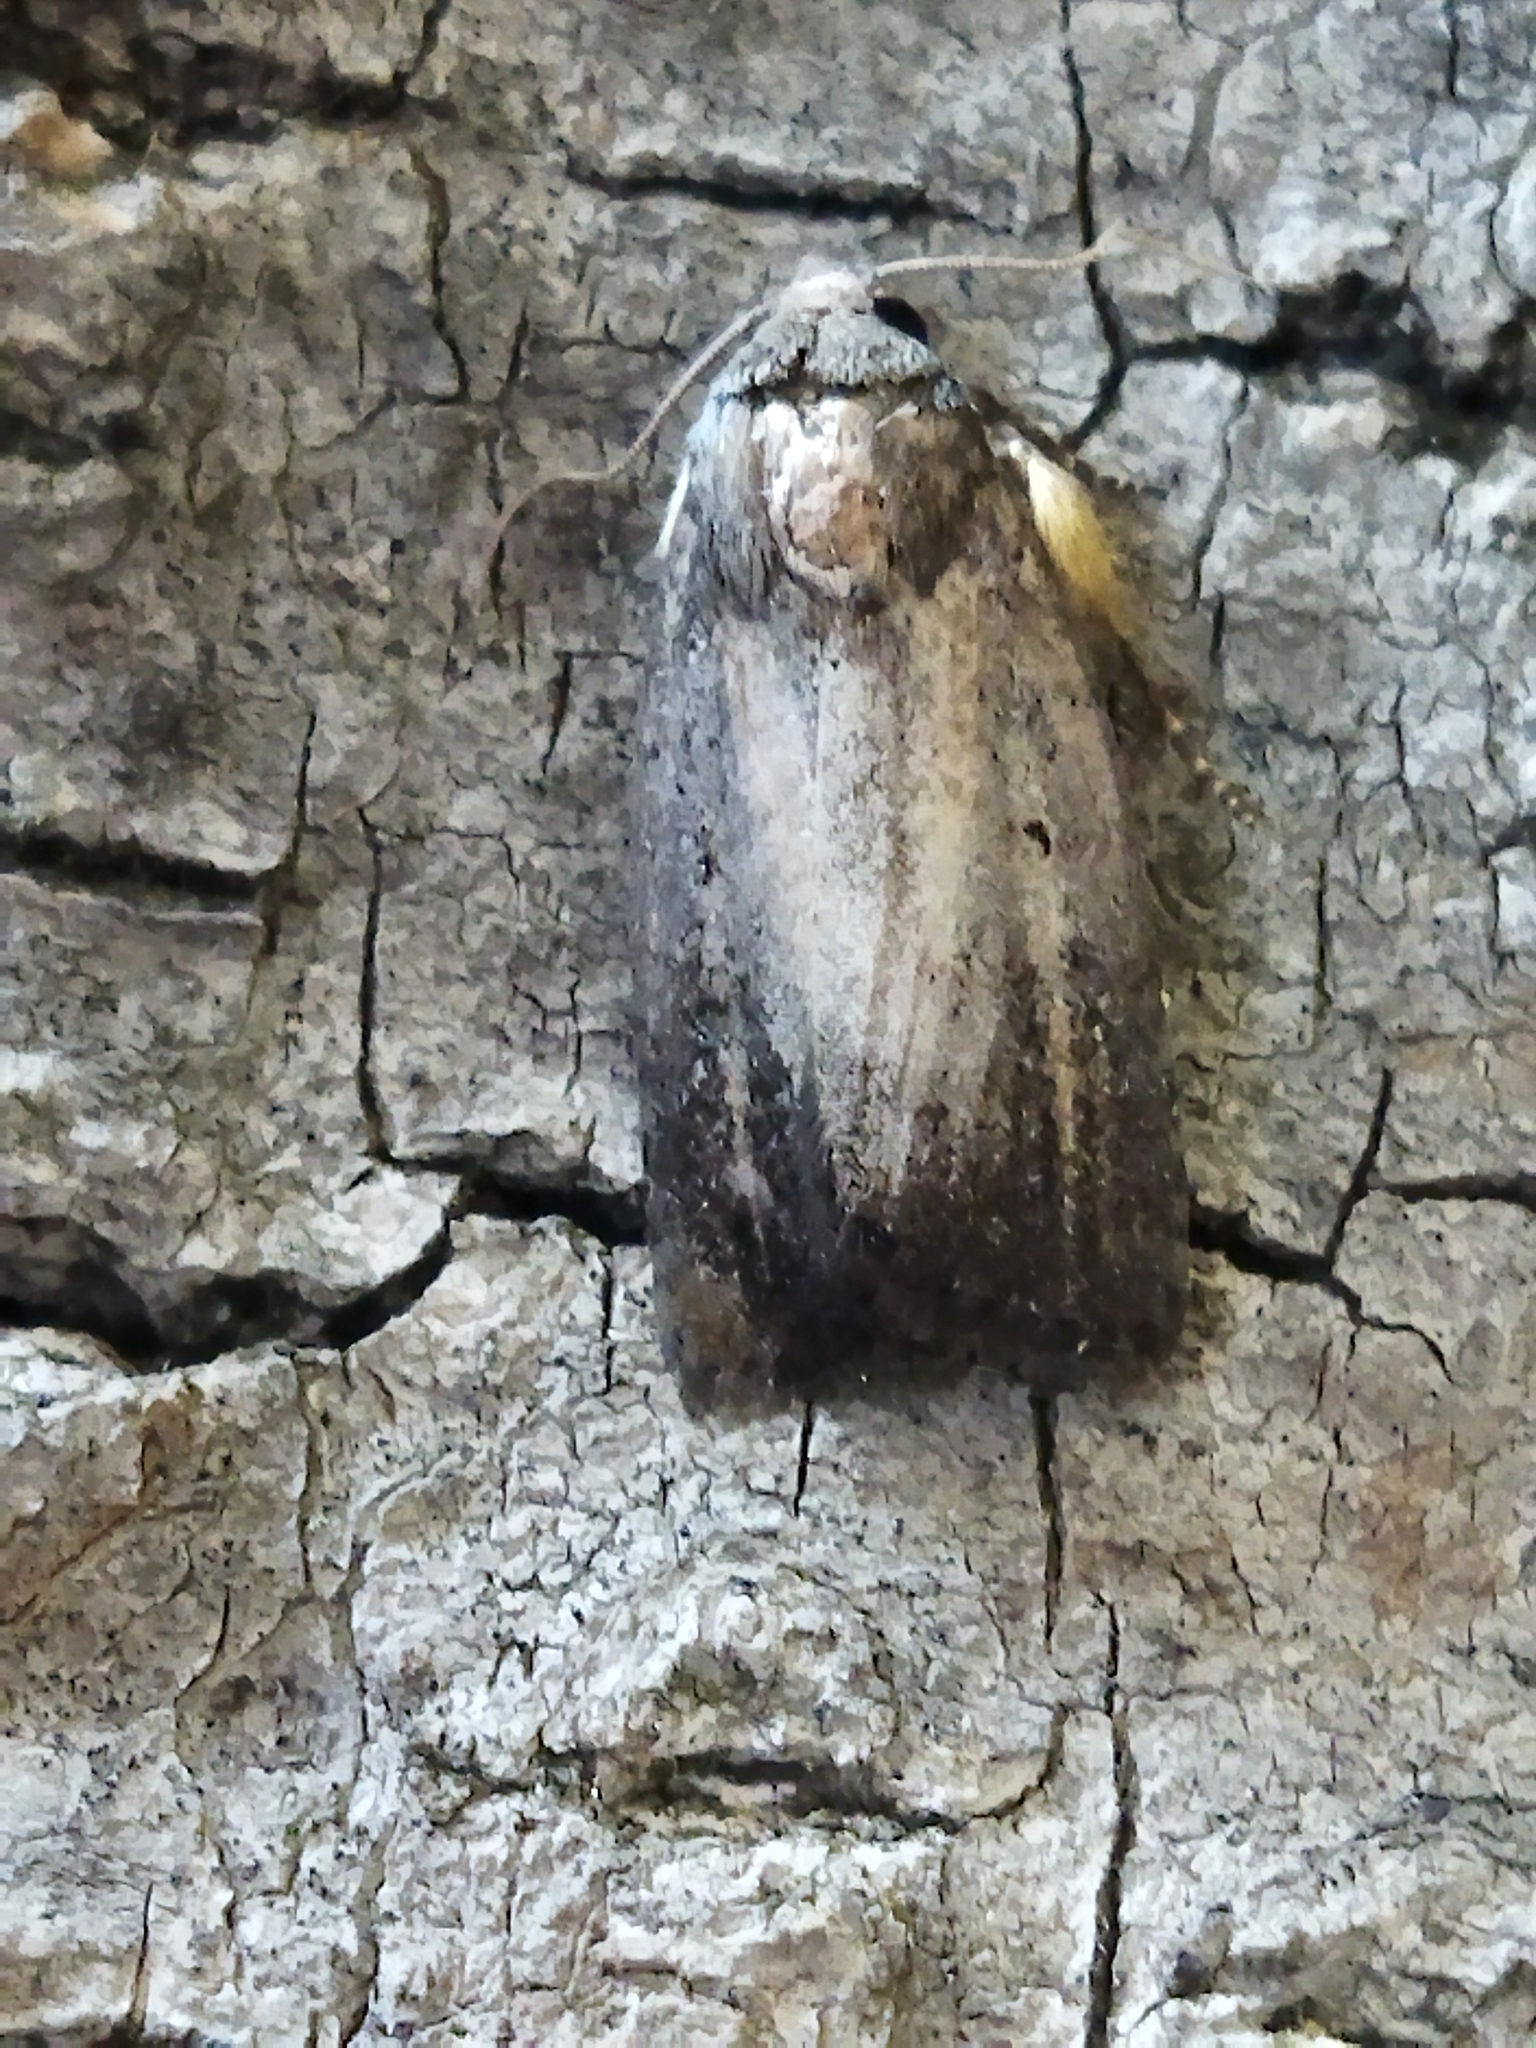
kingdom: Animalia
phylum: Arthropoda
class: Insecta
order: Lepidoptera
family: Noctuidae
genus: Athetis
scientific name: Athetis hospes
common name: Porter's rustic
